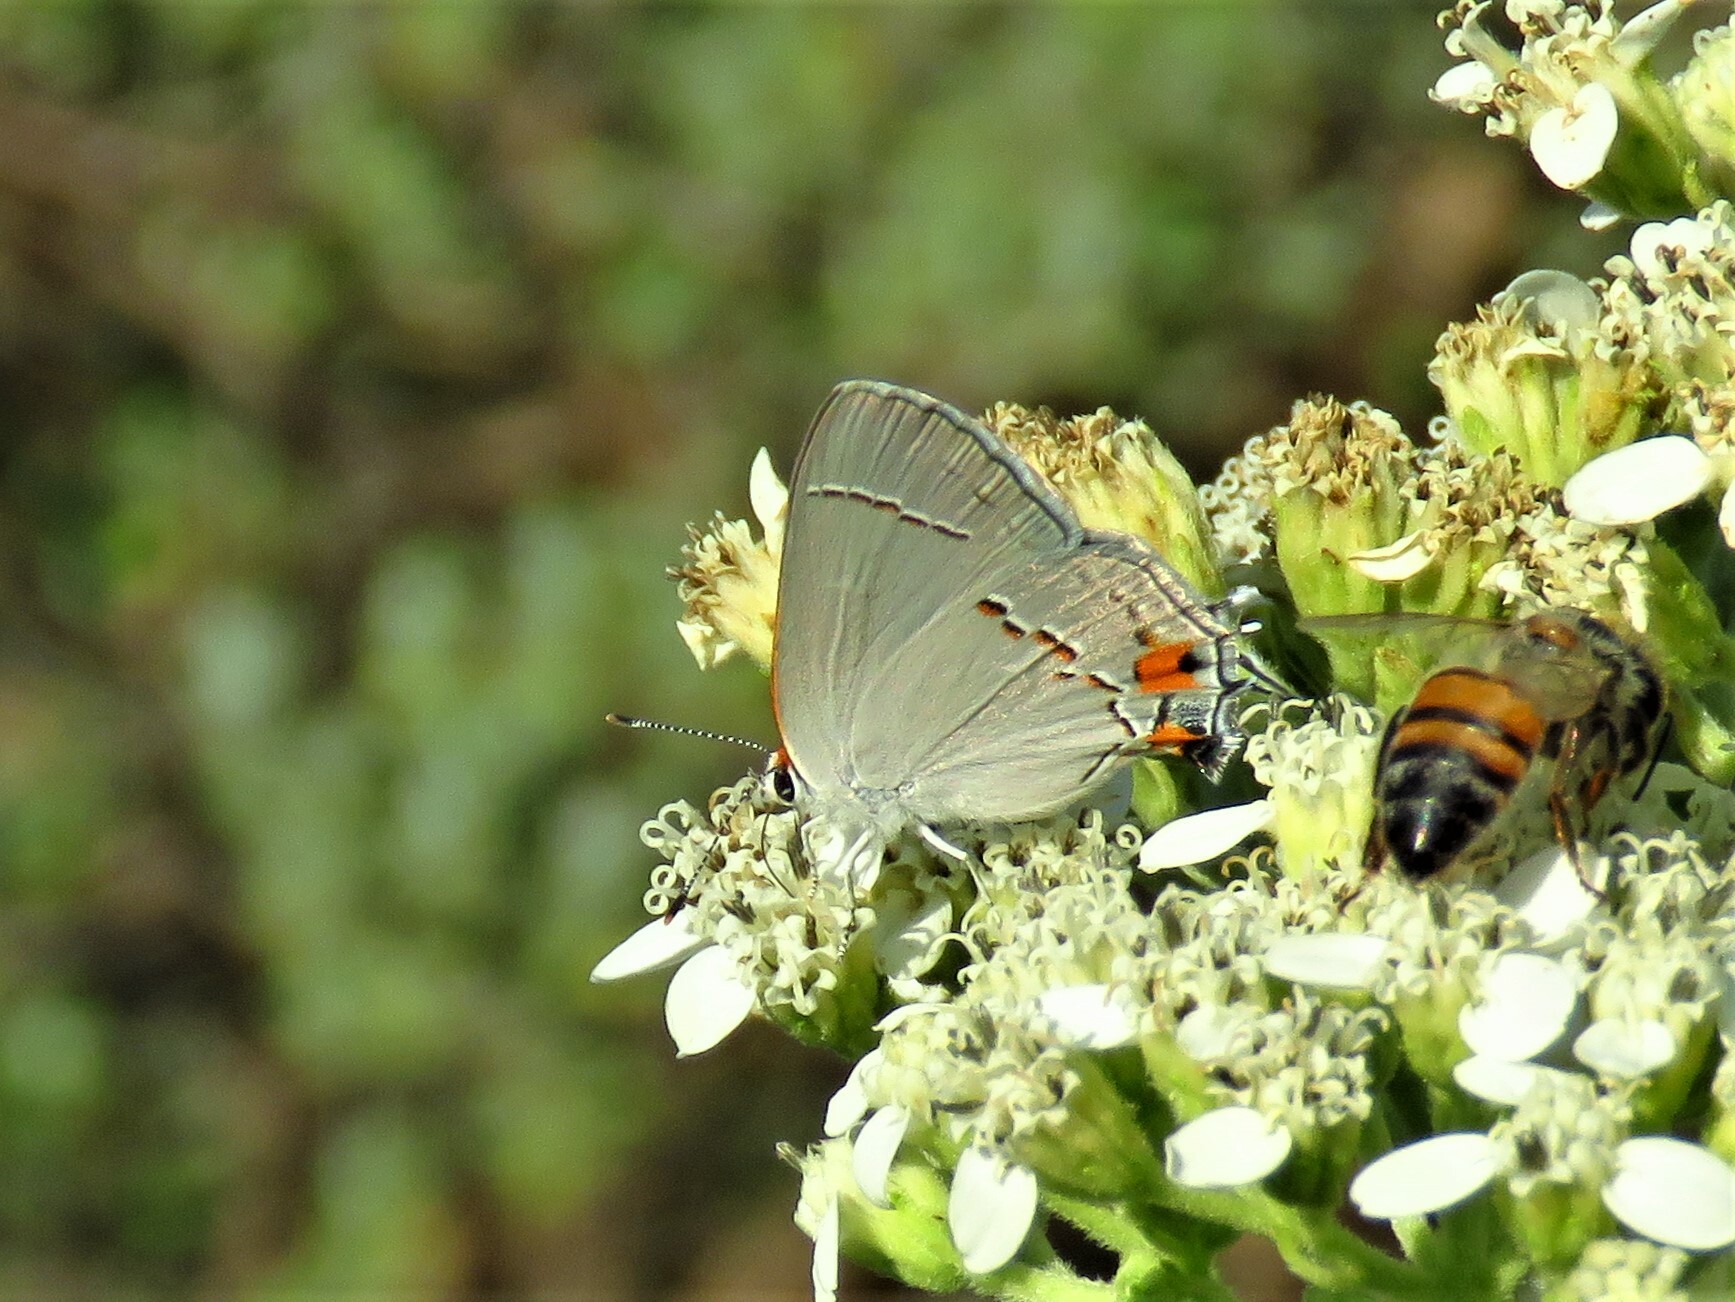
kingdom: Animalia
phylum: Arthropoda
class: Insecta
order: Lepidoptera
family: Lycaenidae
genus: Strymon
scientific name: Strymon melinus
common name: Gray hairstreak
